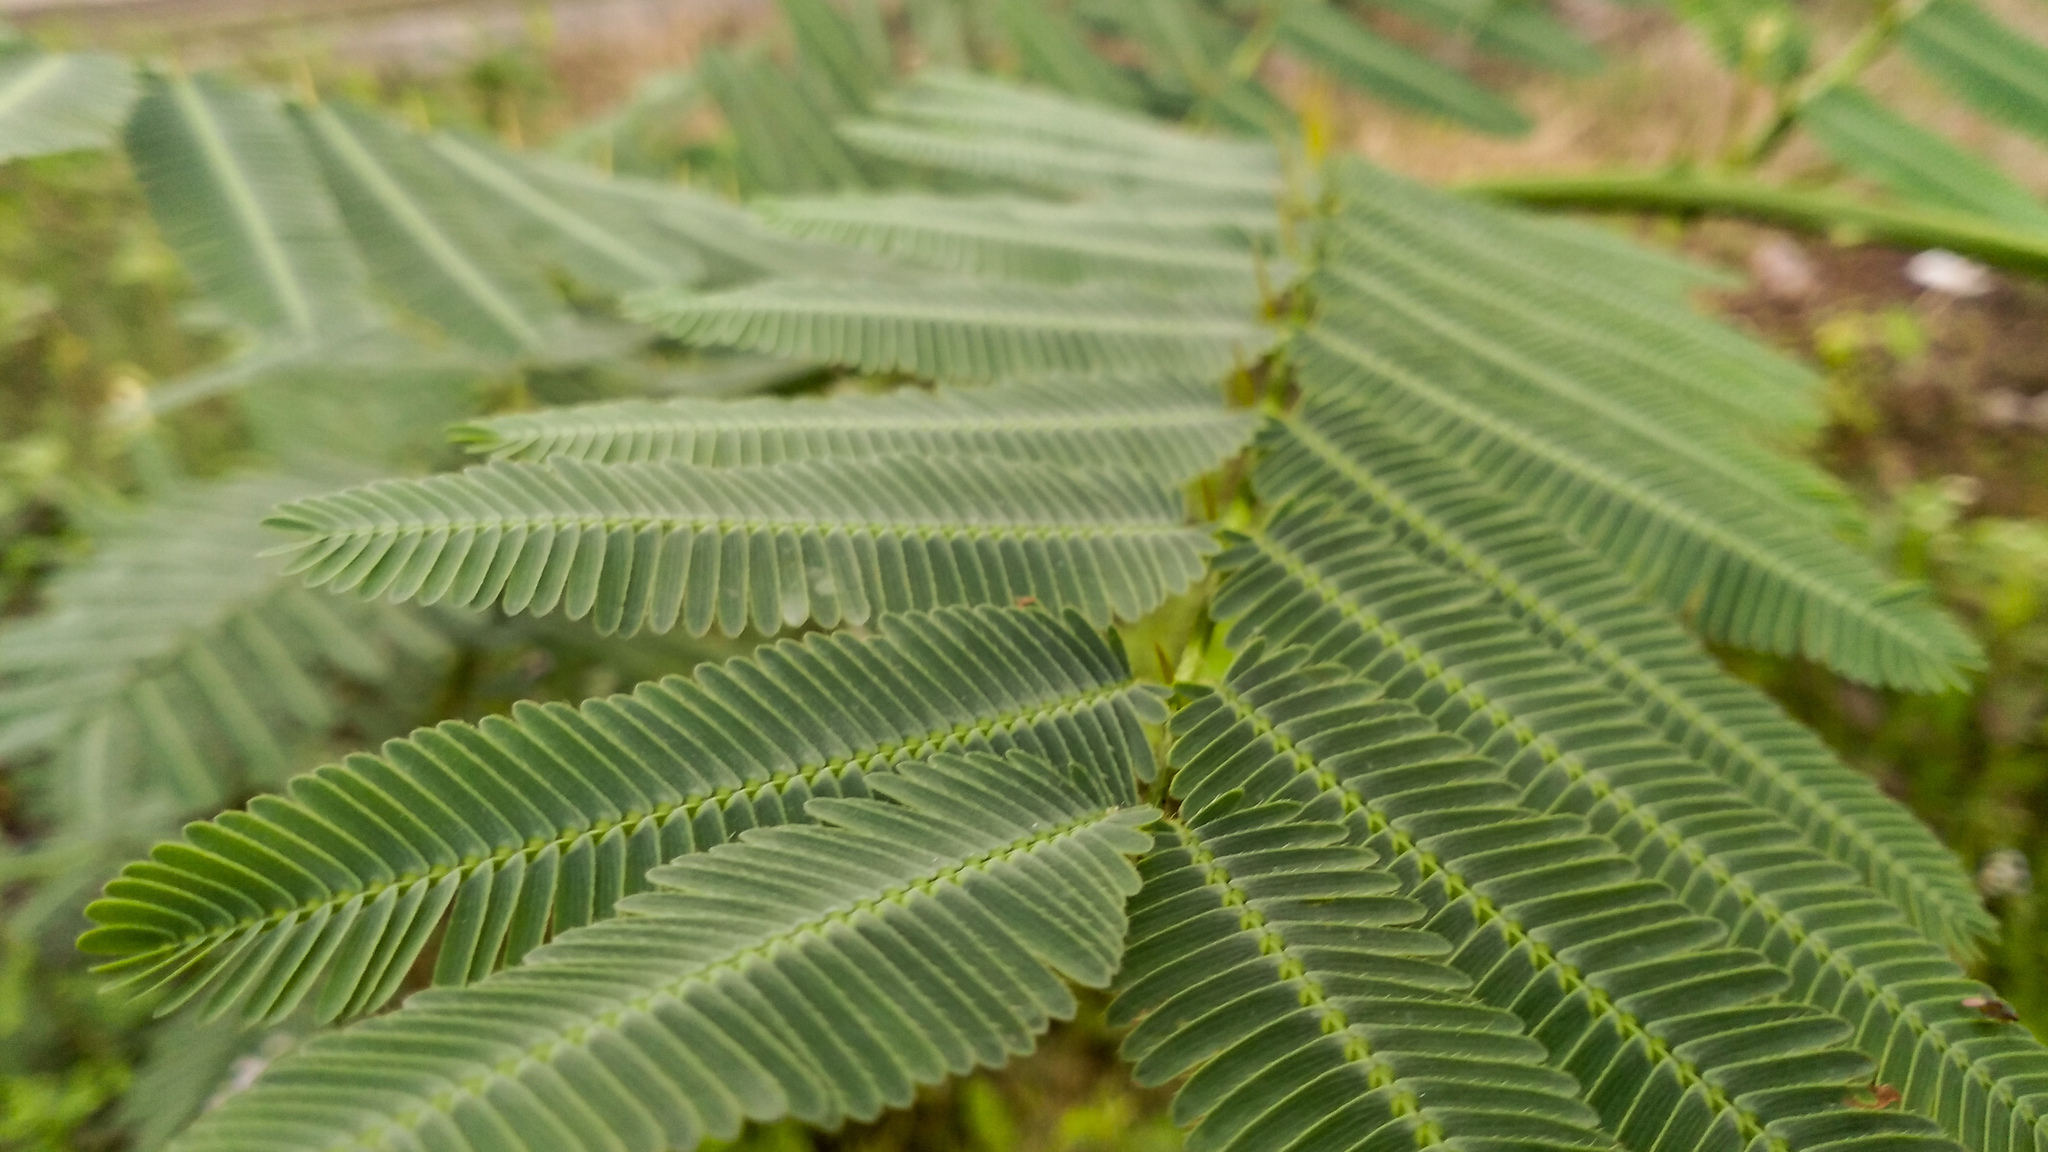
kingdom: Plantae
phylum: Tracheophyta
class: Magnoliopsida
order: Fabales
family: Fabaceae
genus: Mimosa
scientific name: Mimosa pigra
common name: Black mimosa
